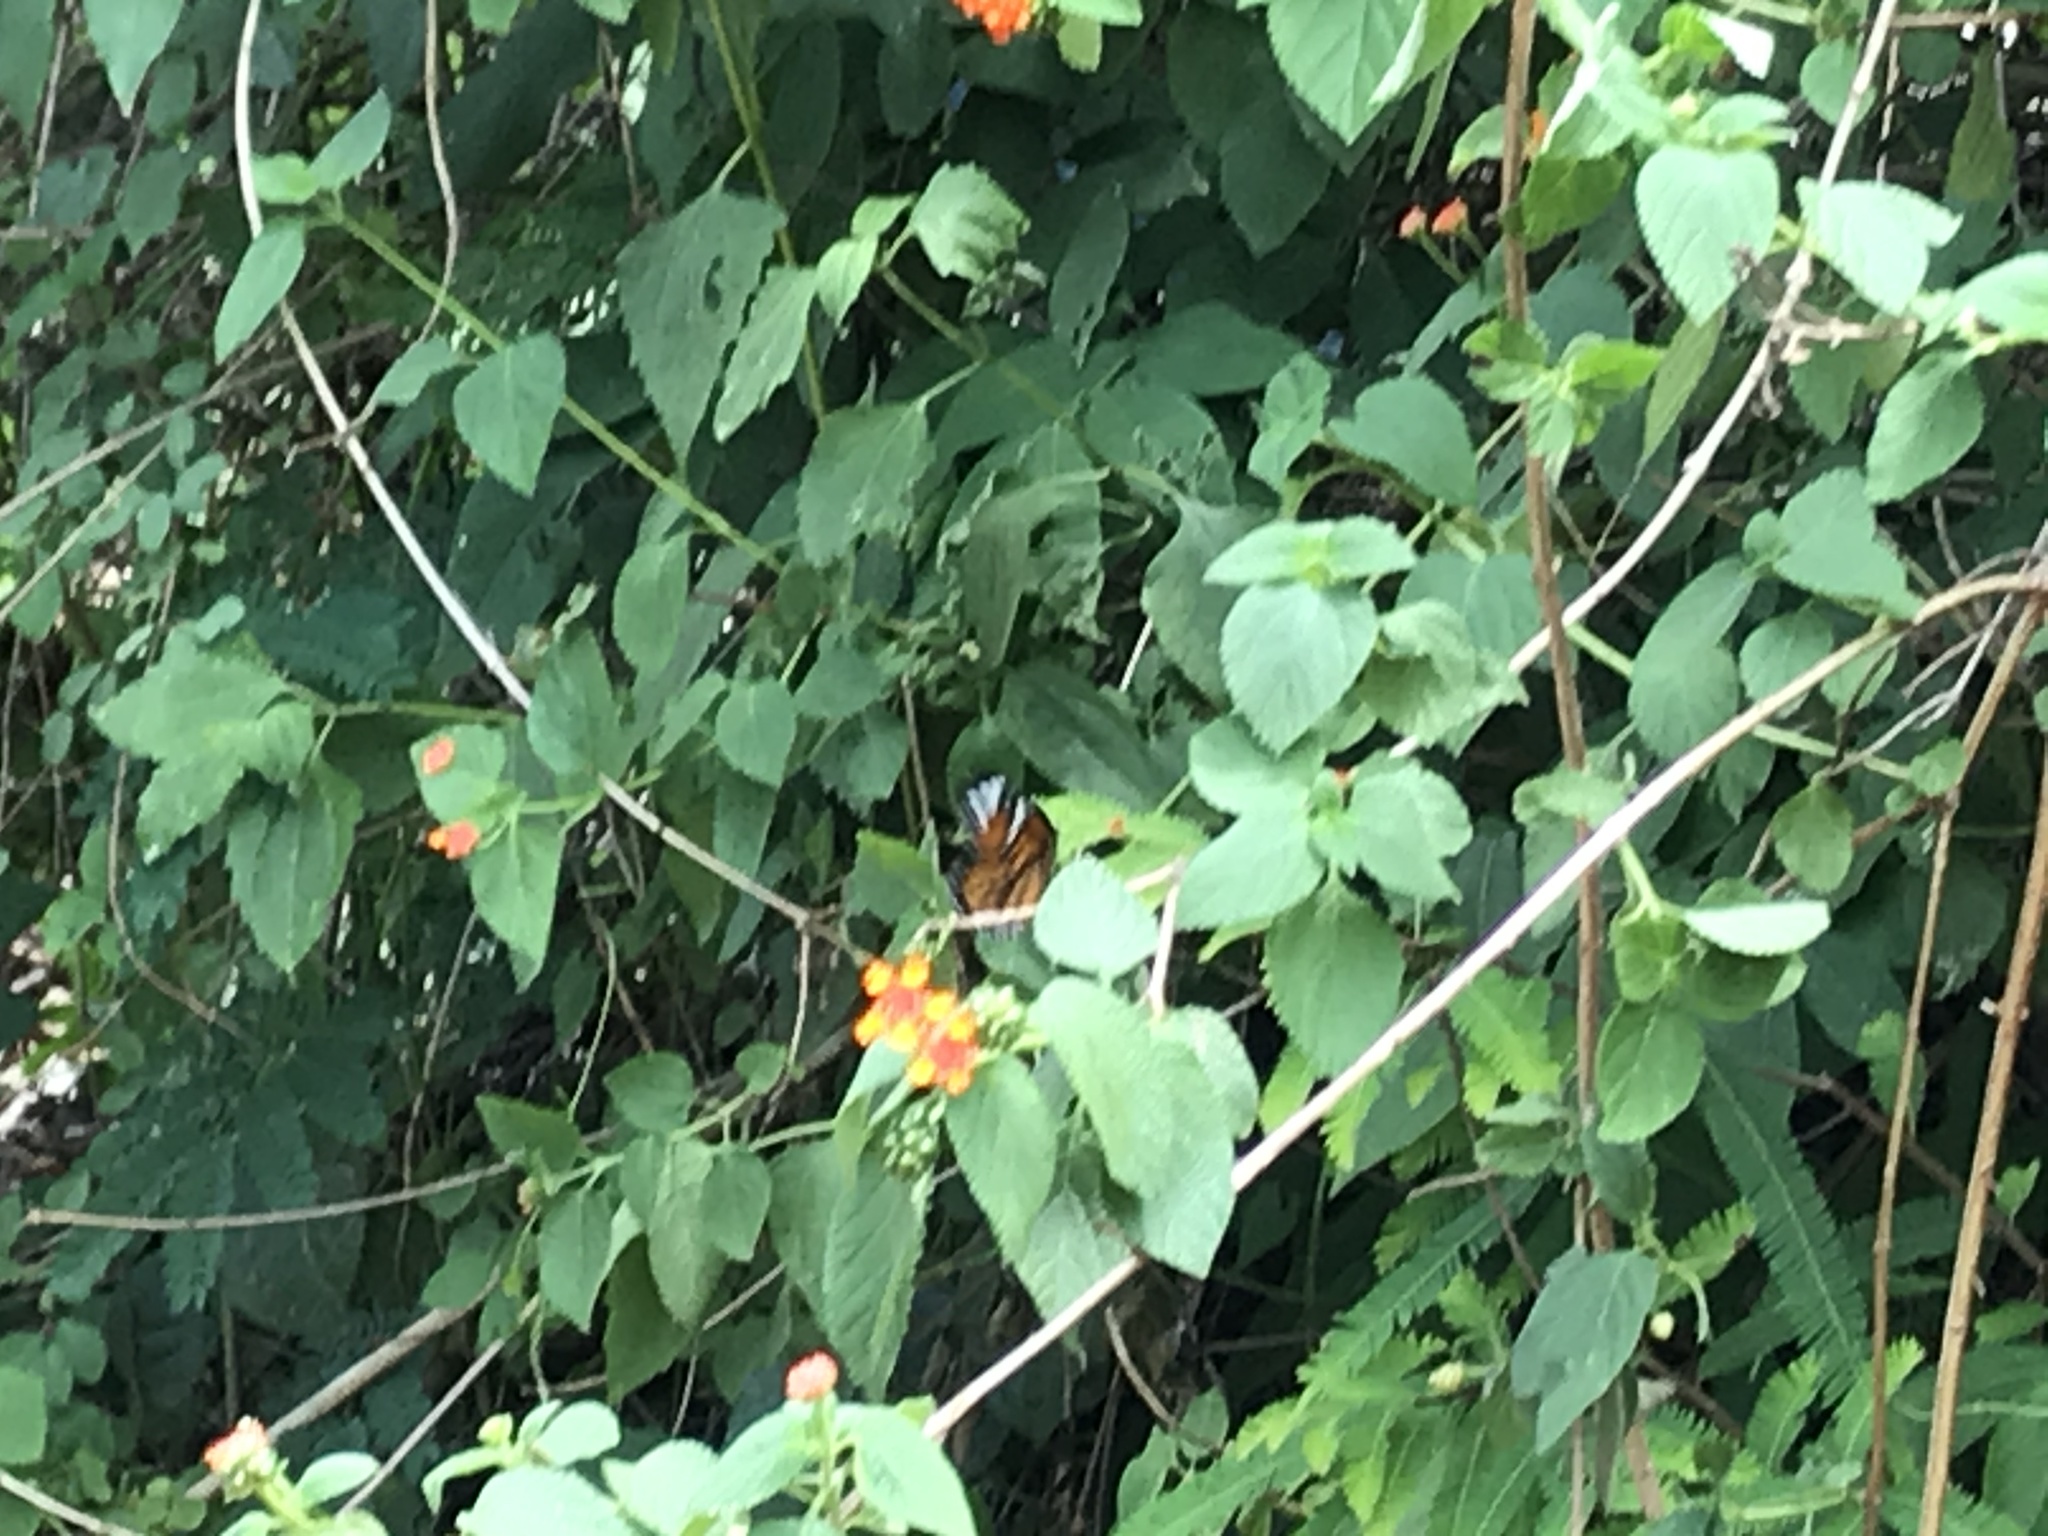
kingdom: Animalia
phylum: Arthropoda
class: Insecta
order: Lepidoptera
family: Nymphalidae
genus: Danaus
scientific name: Danaus genutia
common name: Common tiger butterfly
